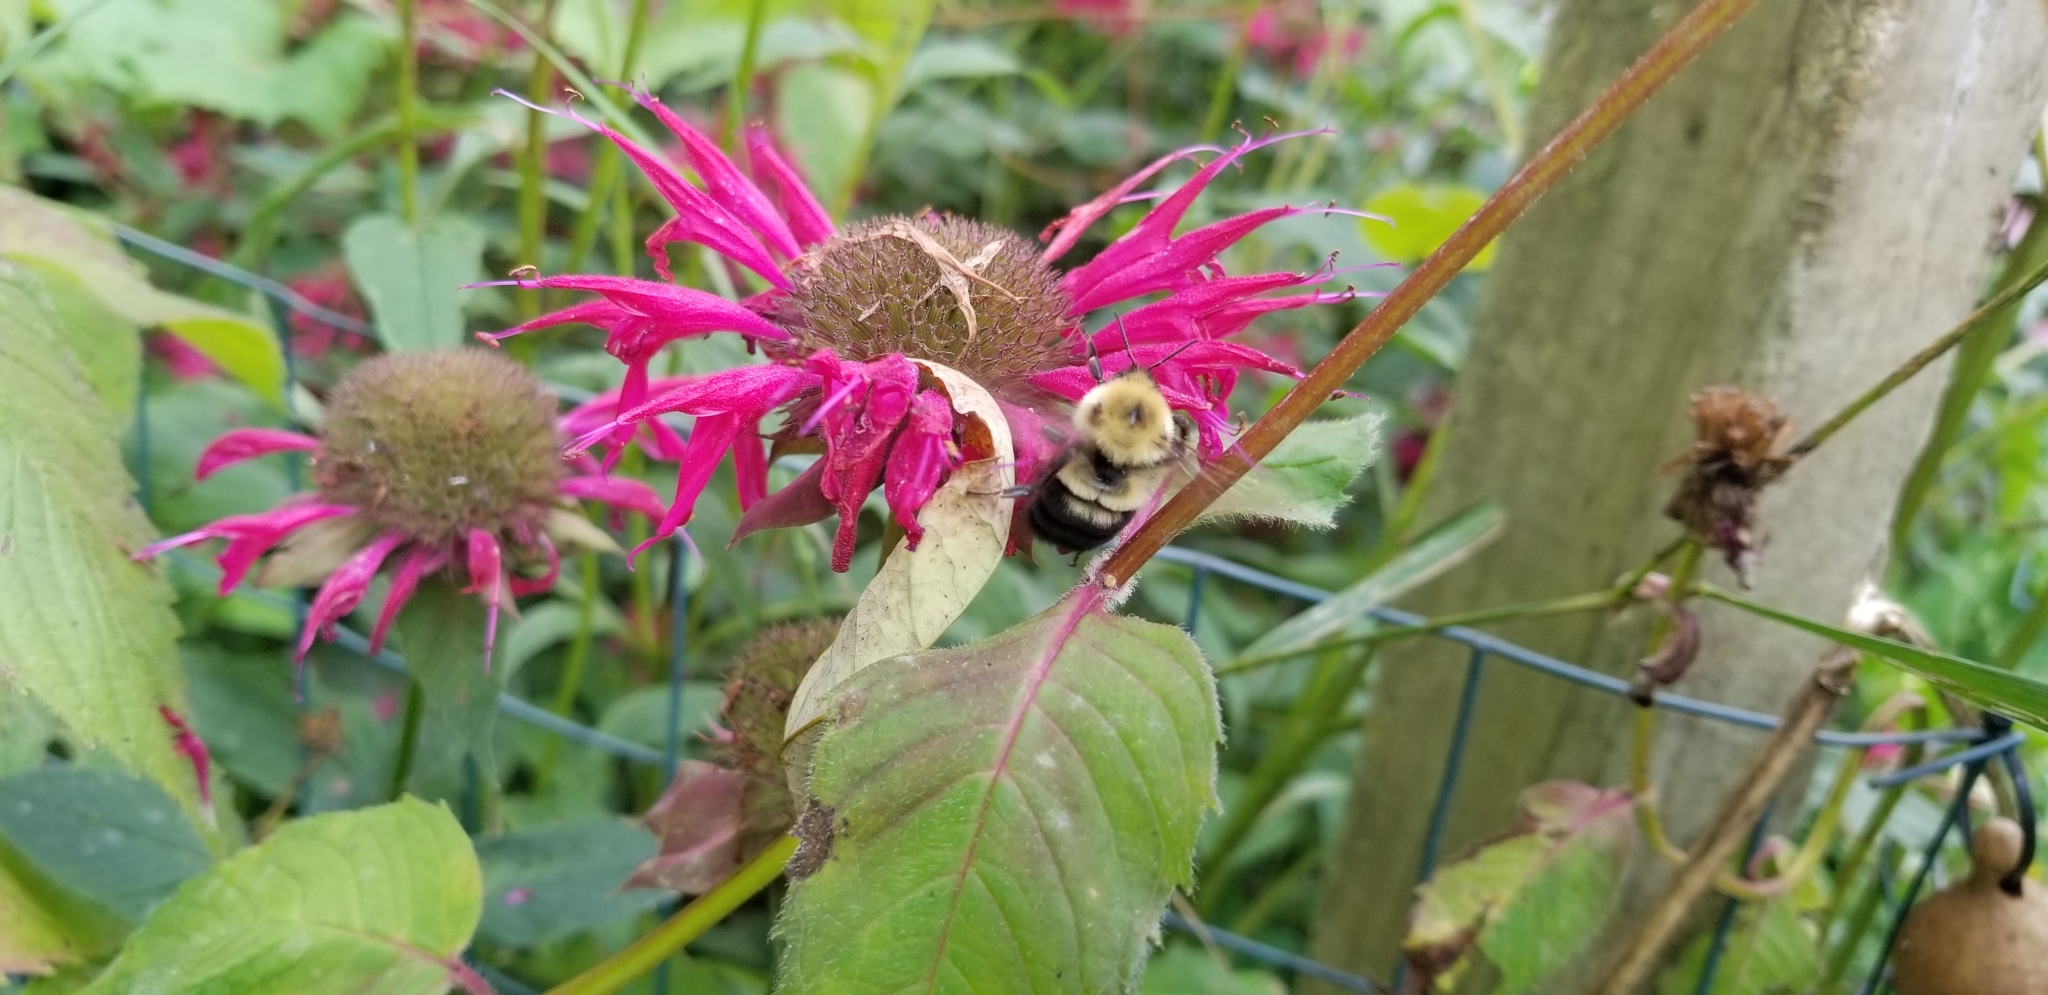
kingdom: Animalia
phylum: Arthropoda
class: Insecta
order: Hymenoptera
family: Apidae
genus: Bombus
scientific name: Bombus bimaculatus
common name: Two-spotted bumble bee
